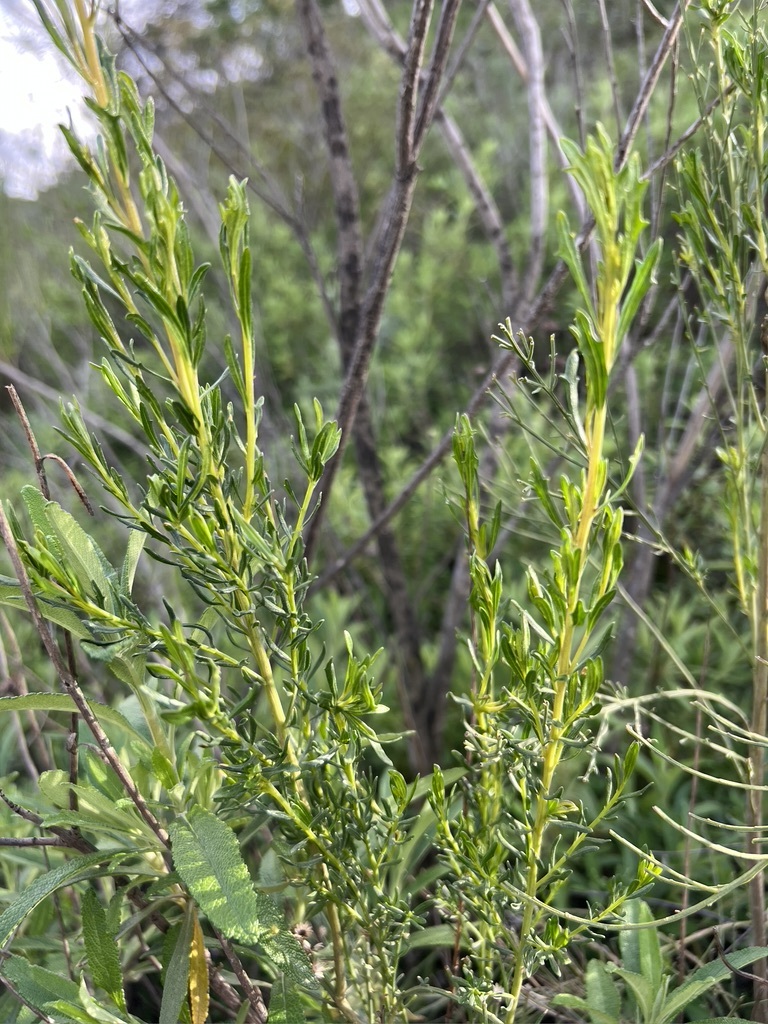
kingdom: Plantae
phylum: Tracheophyta
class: Magnoliopsida
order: Asterales
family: Asteraceae
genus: Baccharis
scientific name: Baccharis sarothroides
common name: Desert-broom
